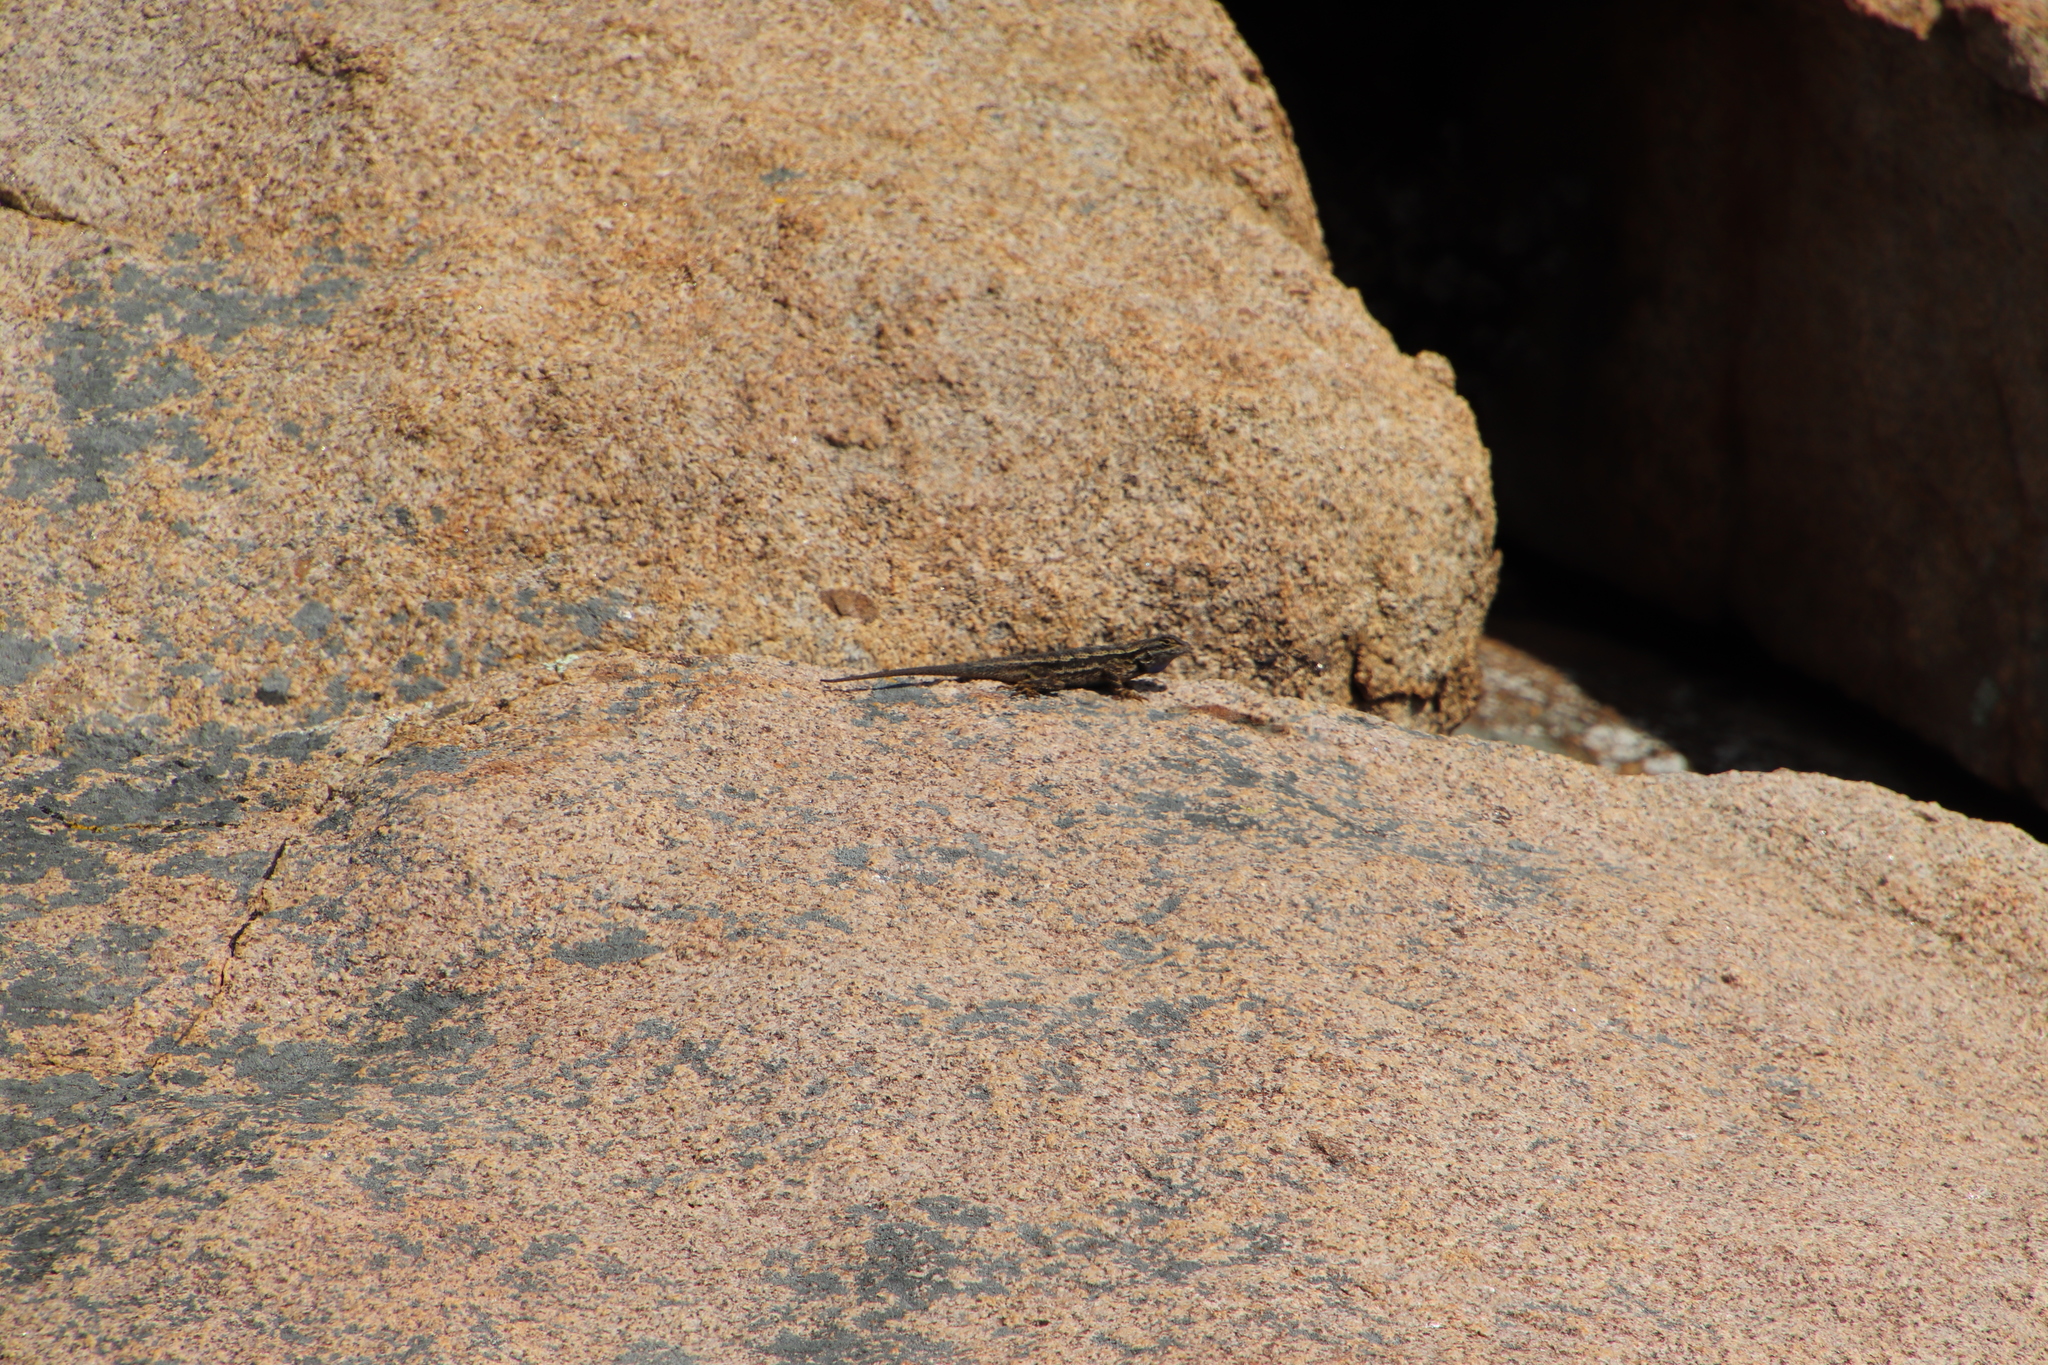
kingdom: Animalia
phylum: Chordata
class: Squamata
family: Phrynosomatidae
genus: Sceloporus
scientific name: Sceloporus occidentalis
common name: Western fence lizard
